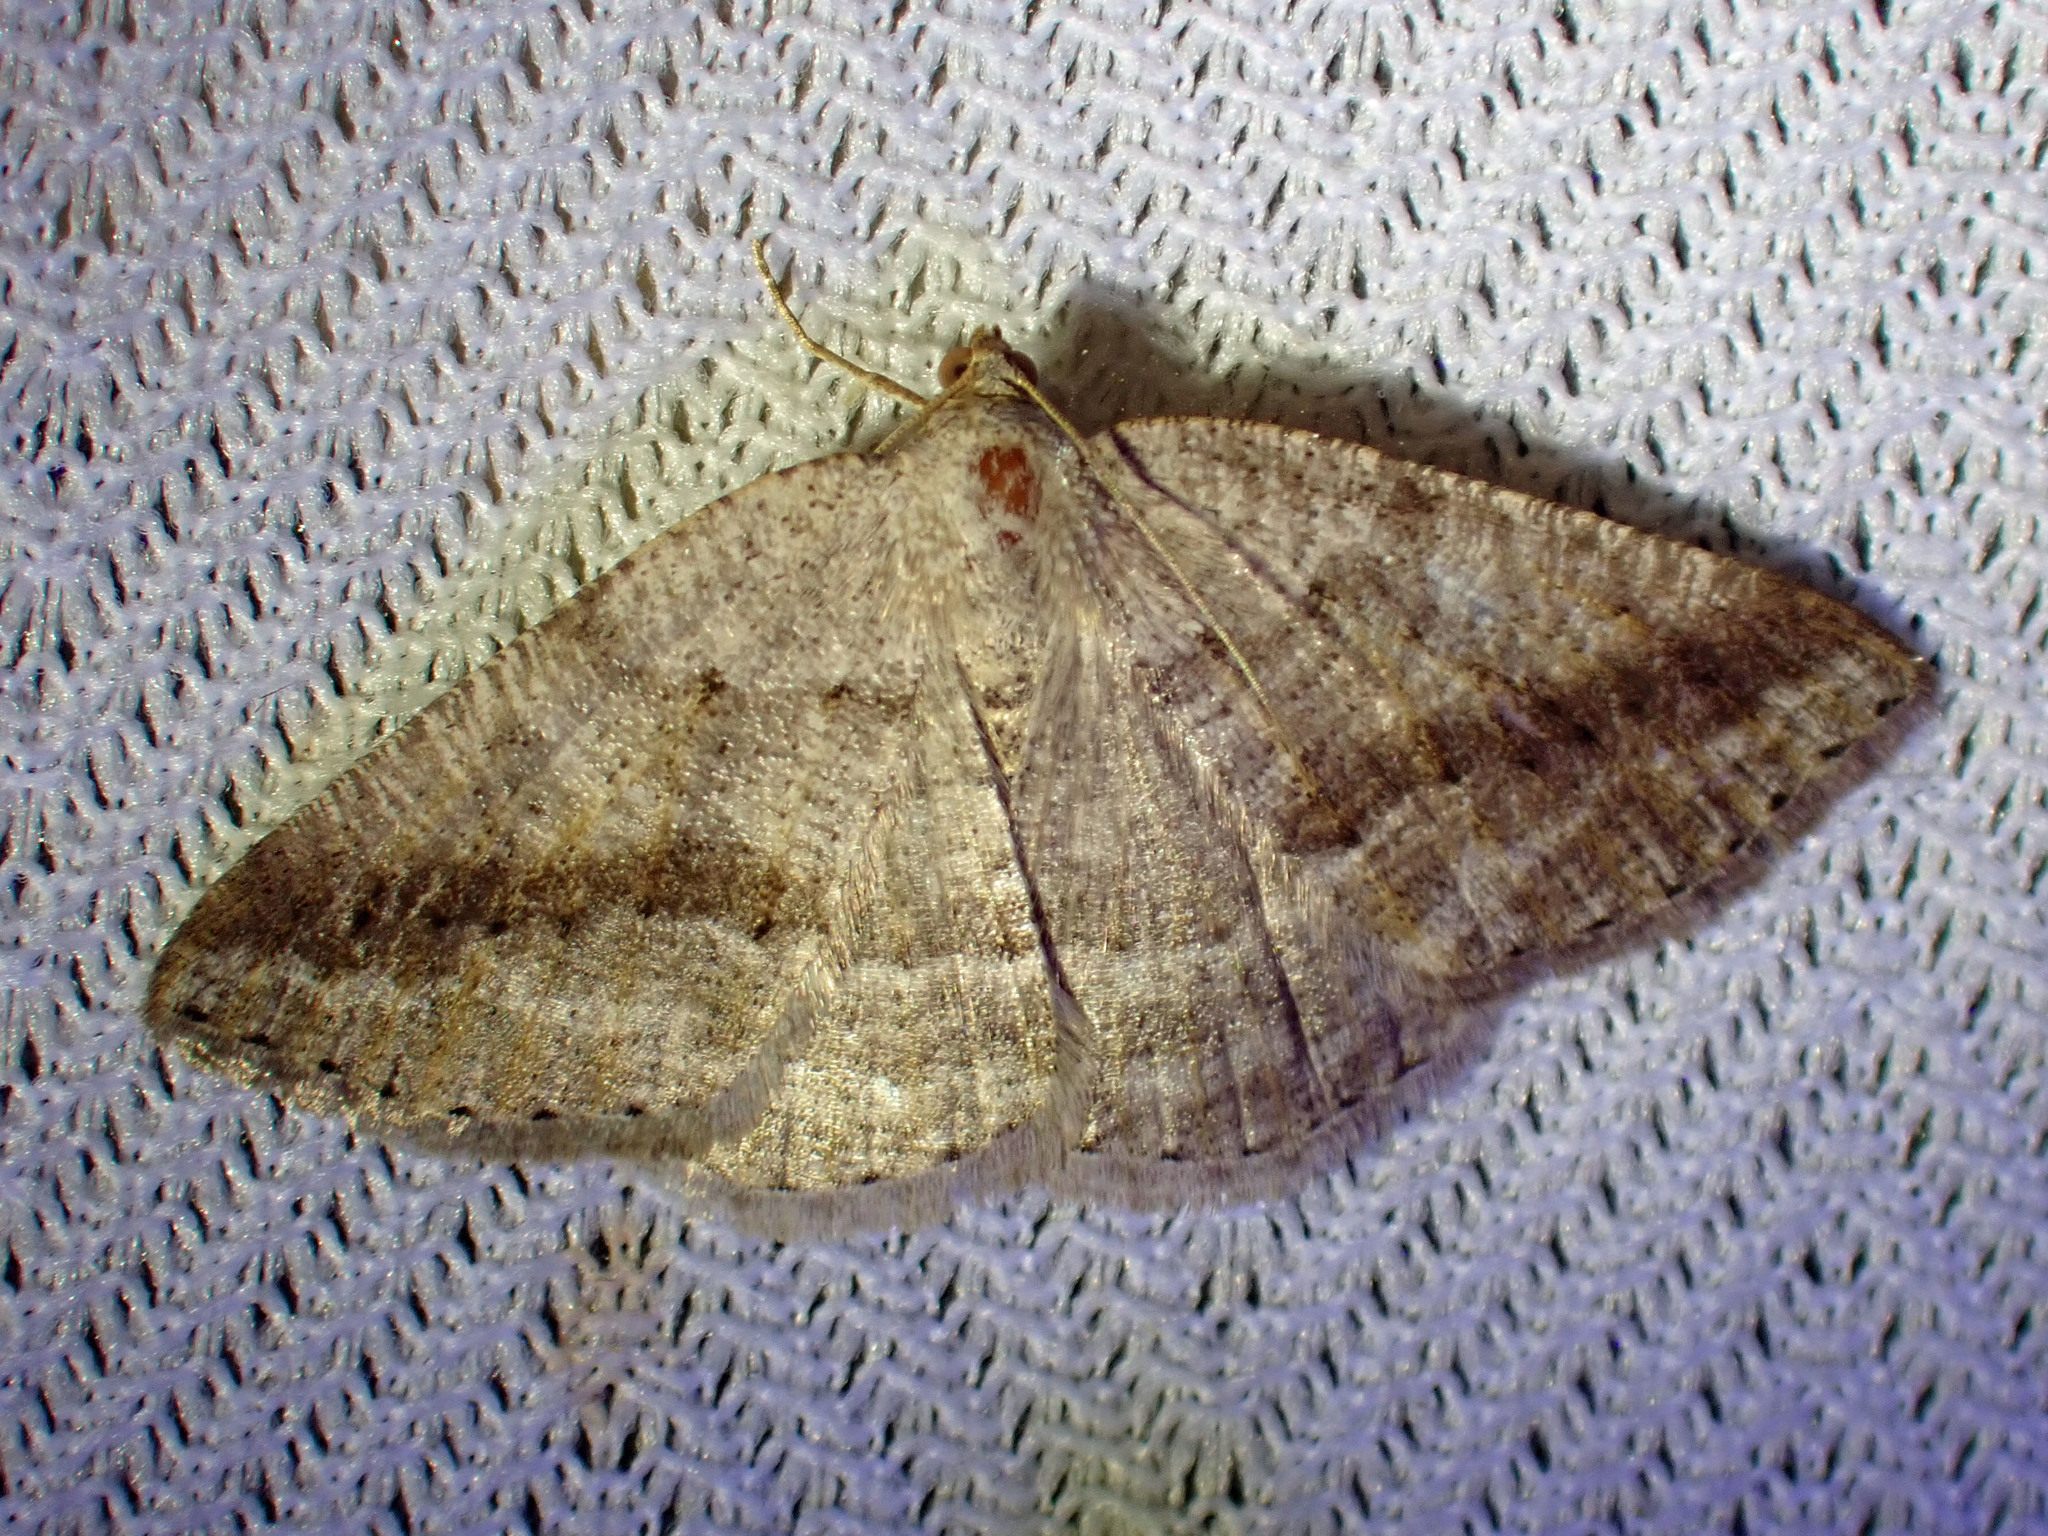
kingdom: Animalia
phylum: Arthropoda
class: Insecta
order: Lepidoptera
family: Geometridae
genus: Tacparia
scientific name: Tacparia detersata
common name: Pale alder moth
